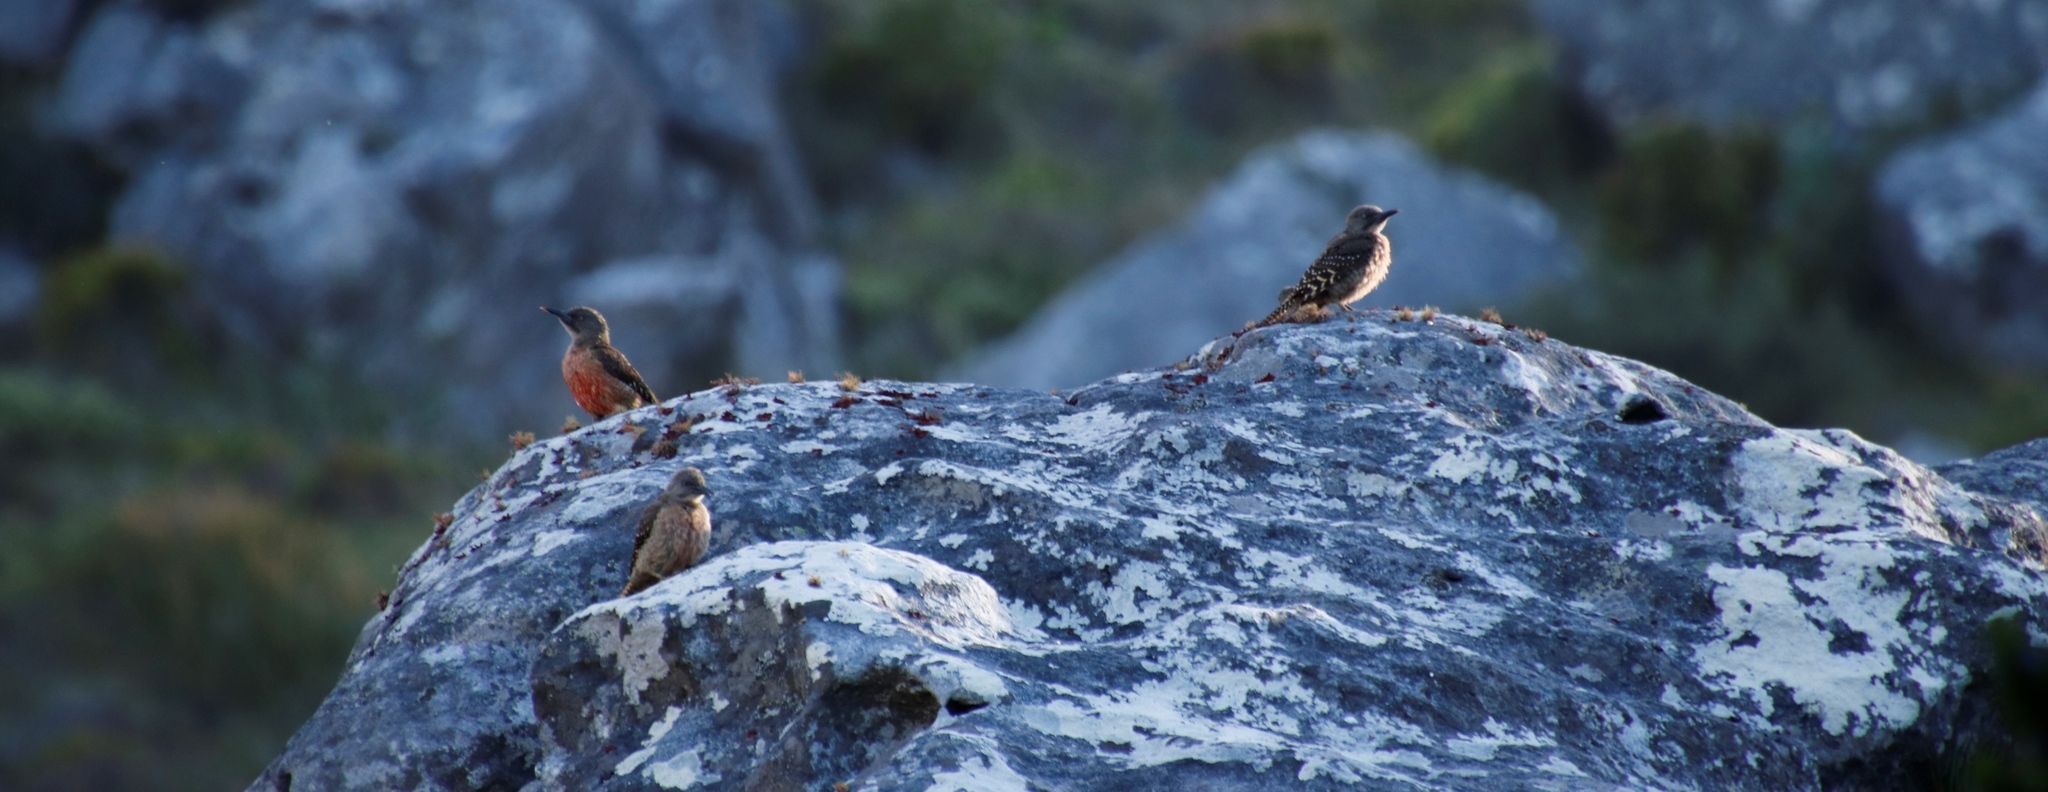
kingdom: Animalia
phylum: Chordata
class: Aves
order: Piciformes
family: Picidae
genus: Geocolaptes
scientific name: Geocolaptes olivaceus
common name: Ground woodpecker
